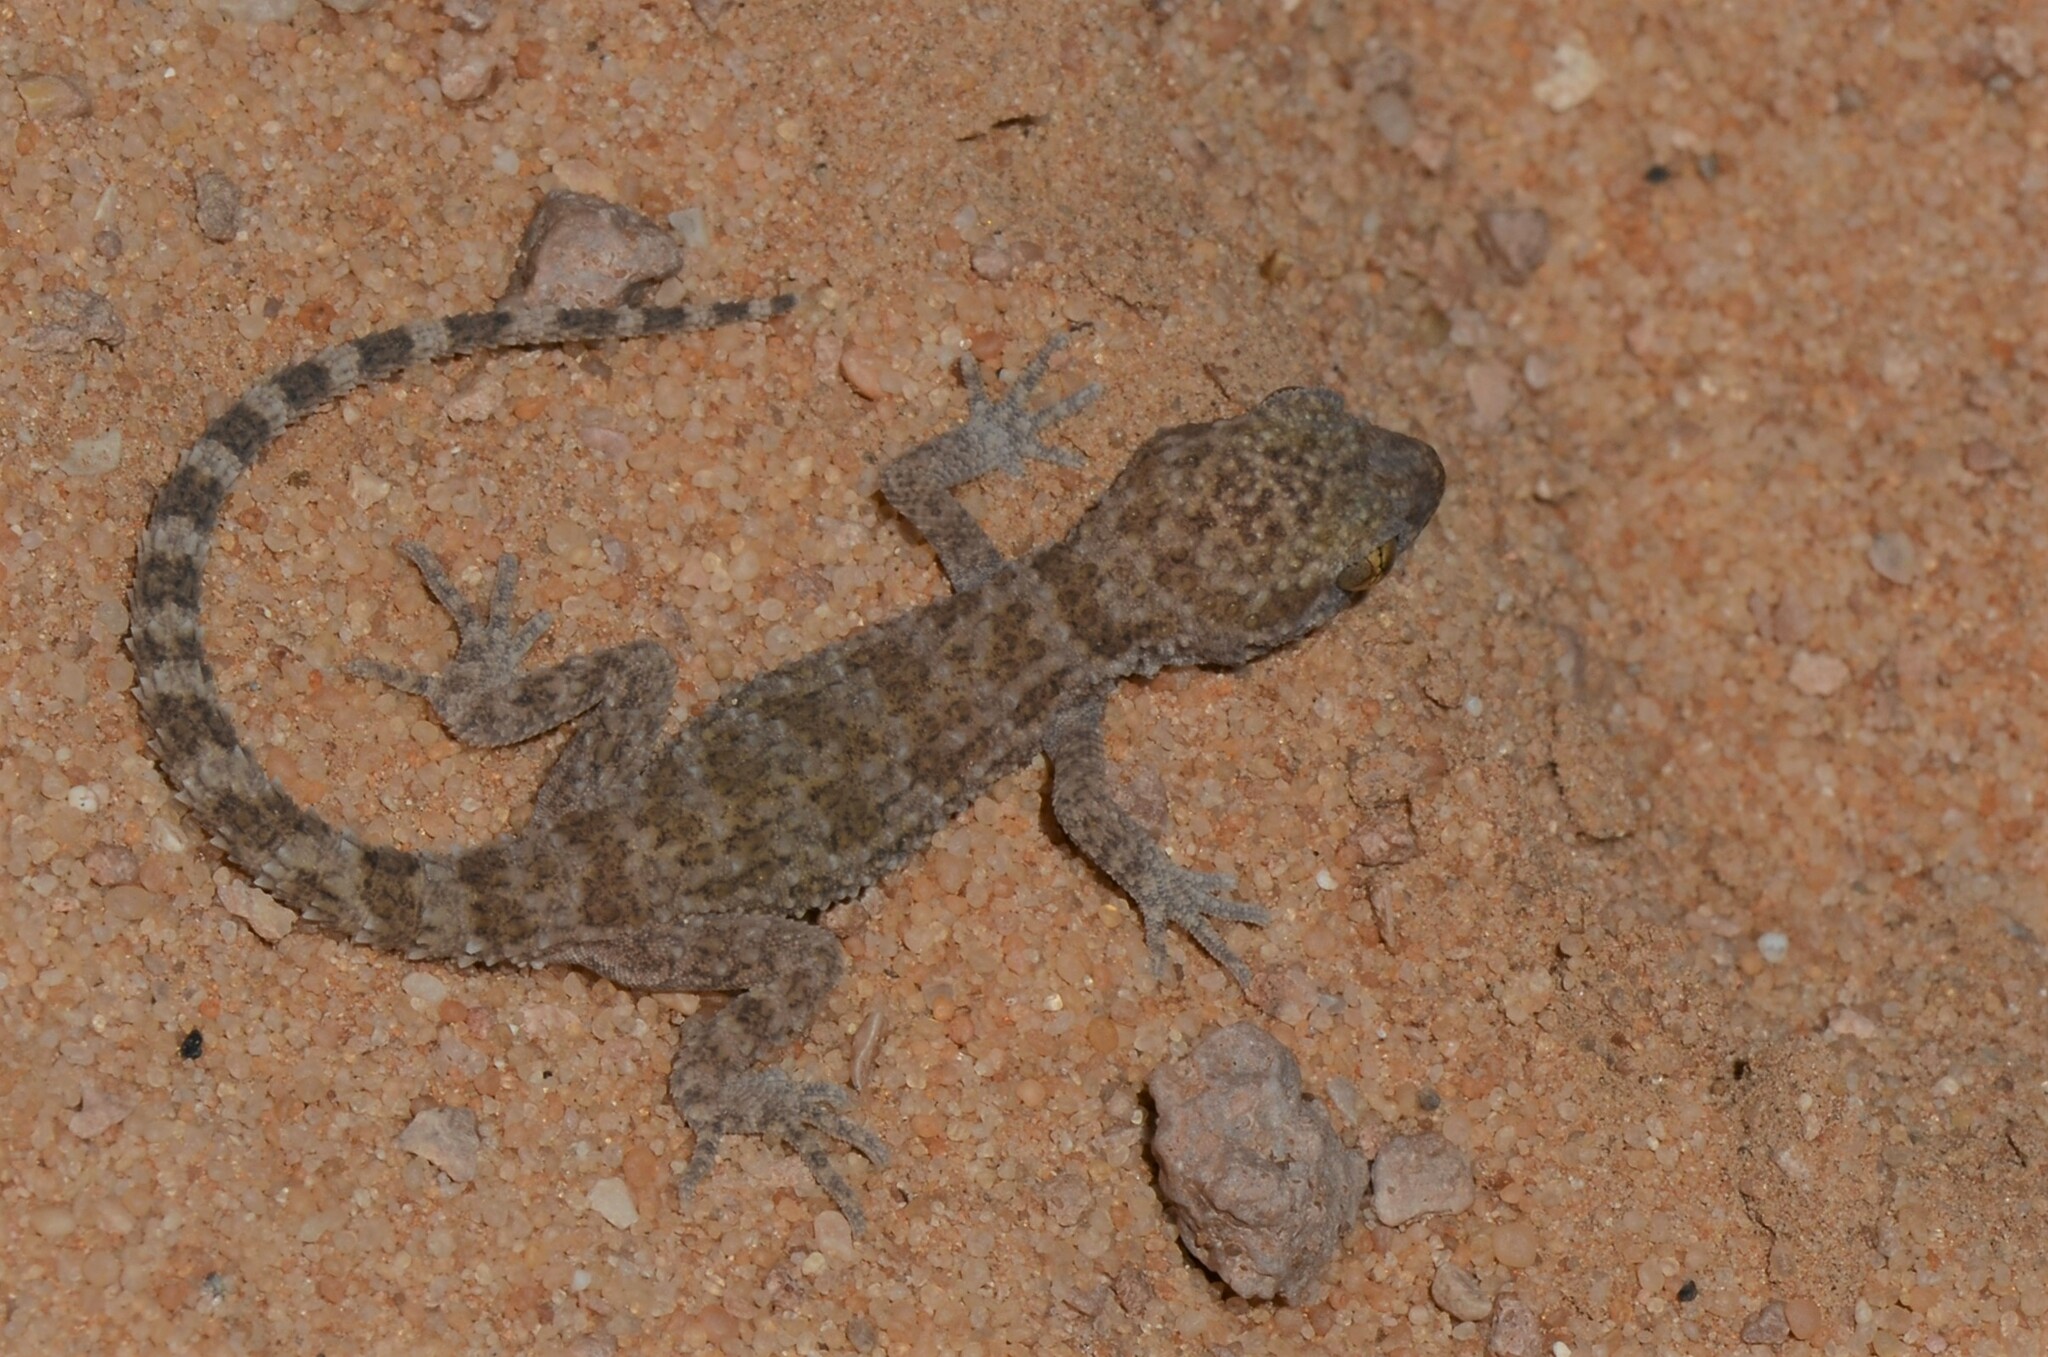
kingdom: Animalia
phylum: Chordata
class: Squamata
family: Gekkonidae
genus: Bunopus
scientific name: Bunopus tuberculatus
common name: Southern tuberculated gecko
